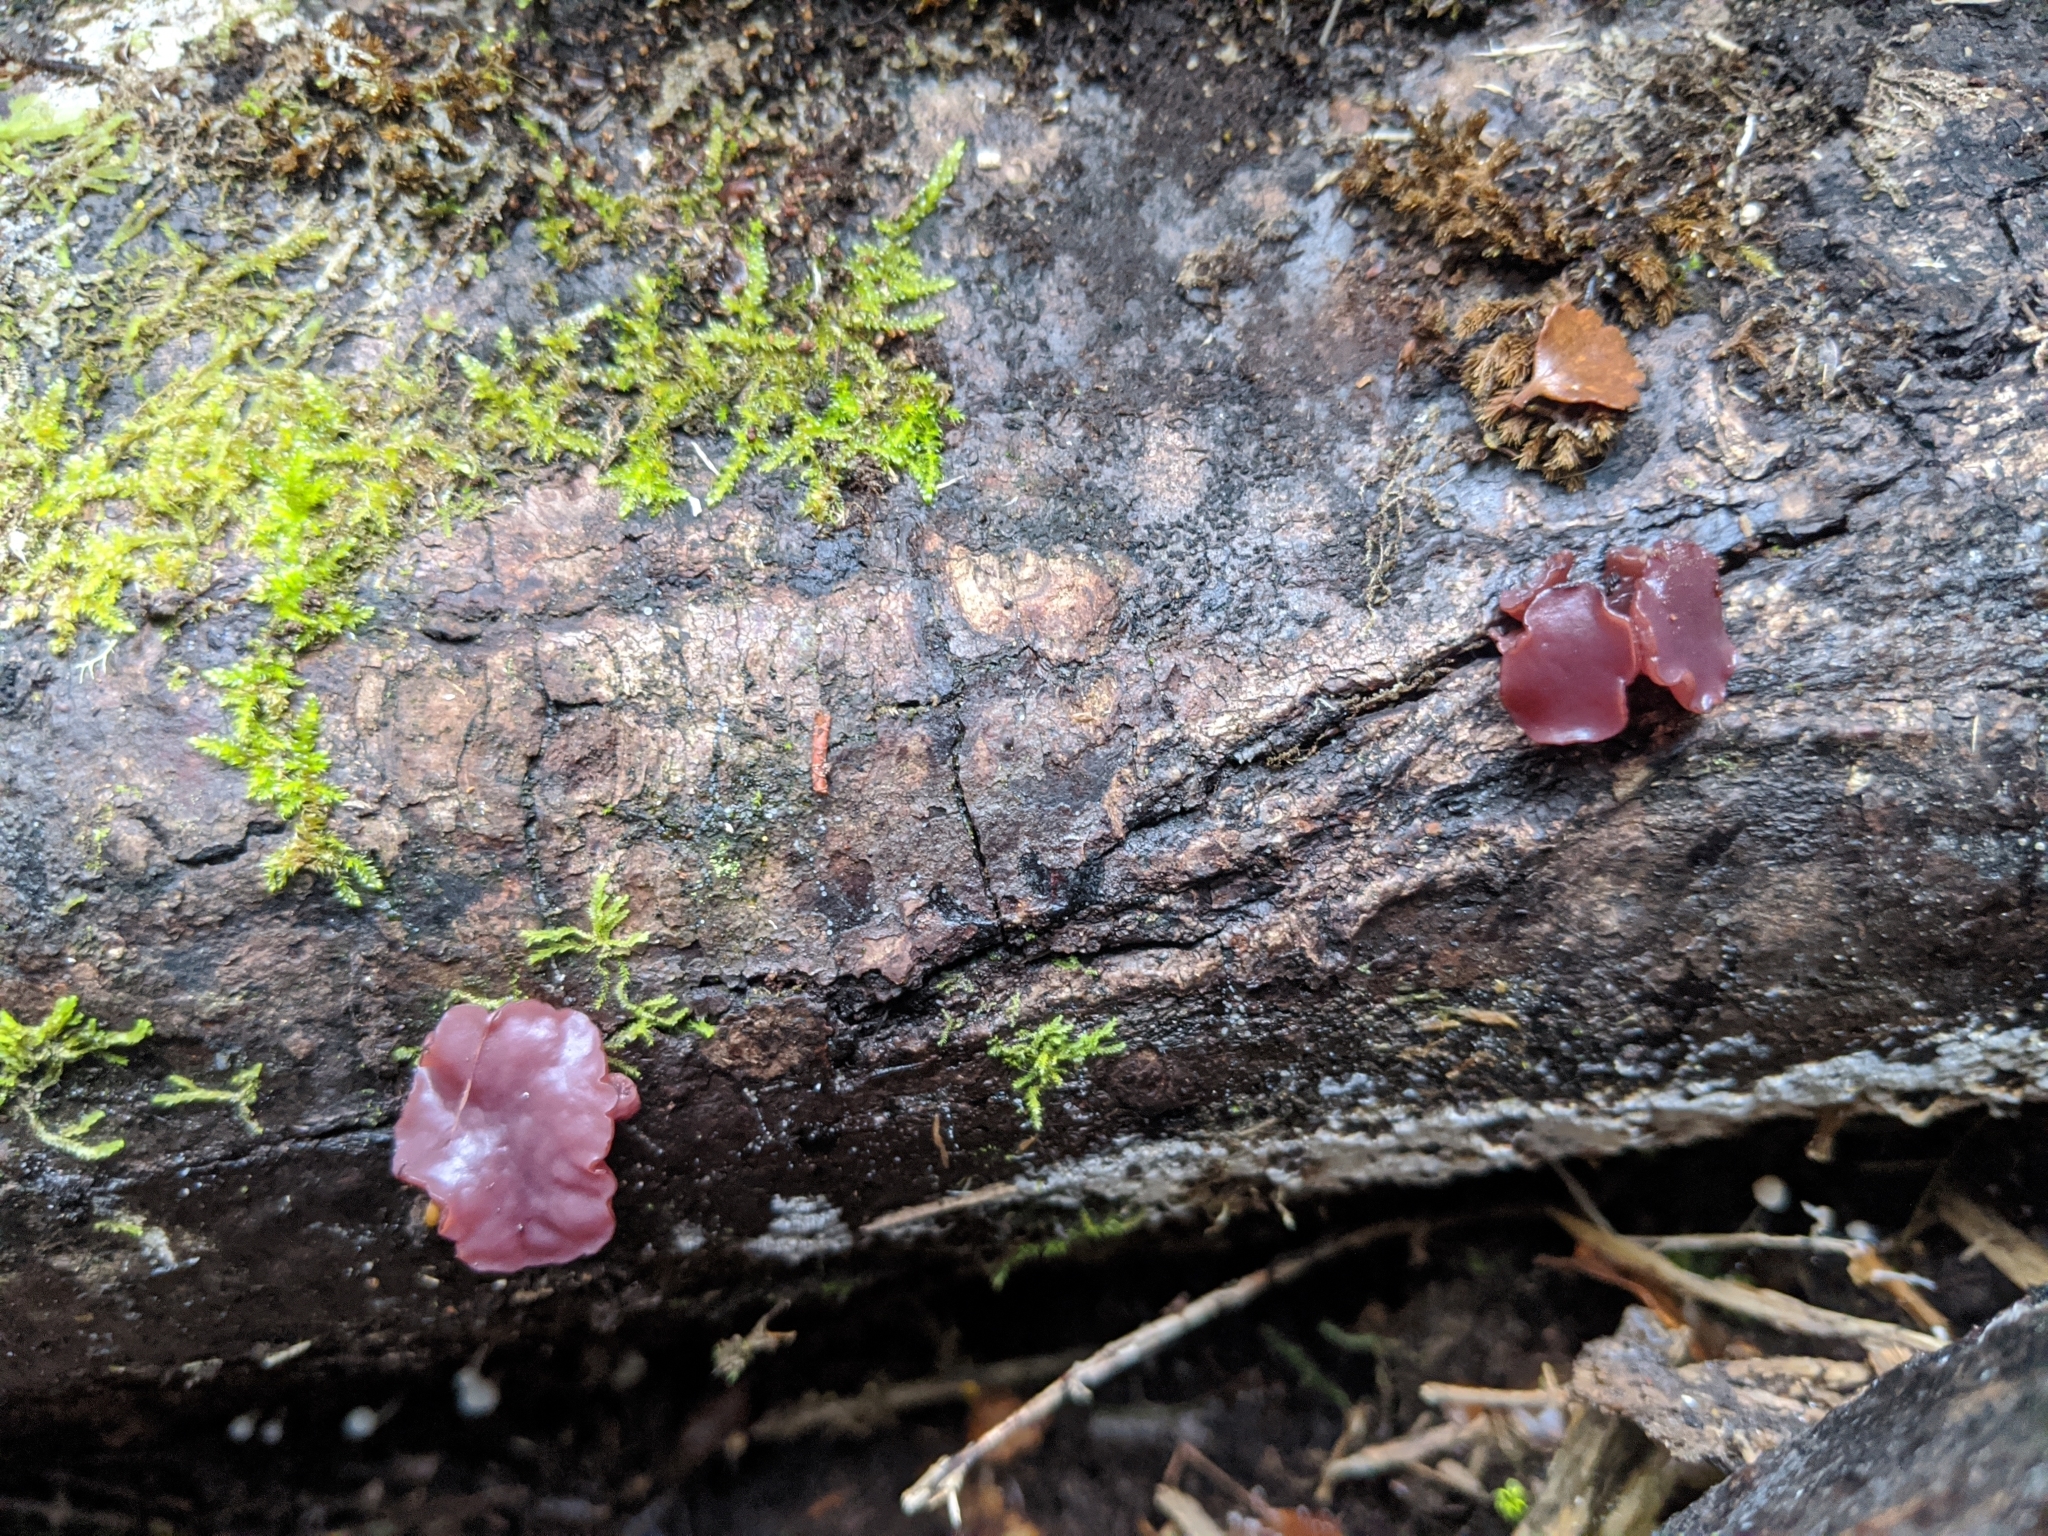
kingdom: Fungi
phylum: Ascomycota
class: Leotiomycetes
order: Helotiales
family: Gelatinodiscaceae
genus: Ascocoryne
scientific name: Ascocoryne sarcoides
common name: Purple jellydisc
